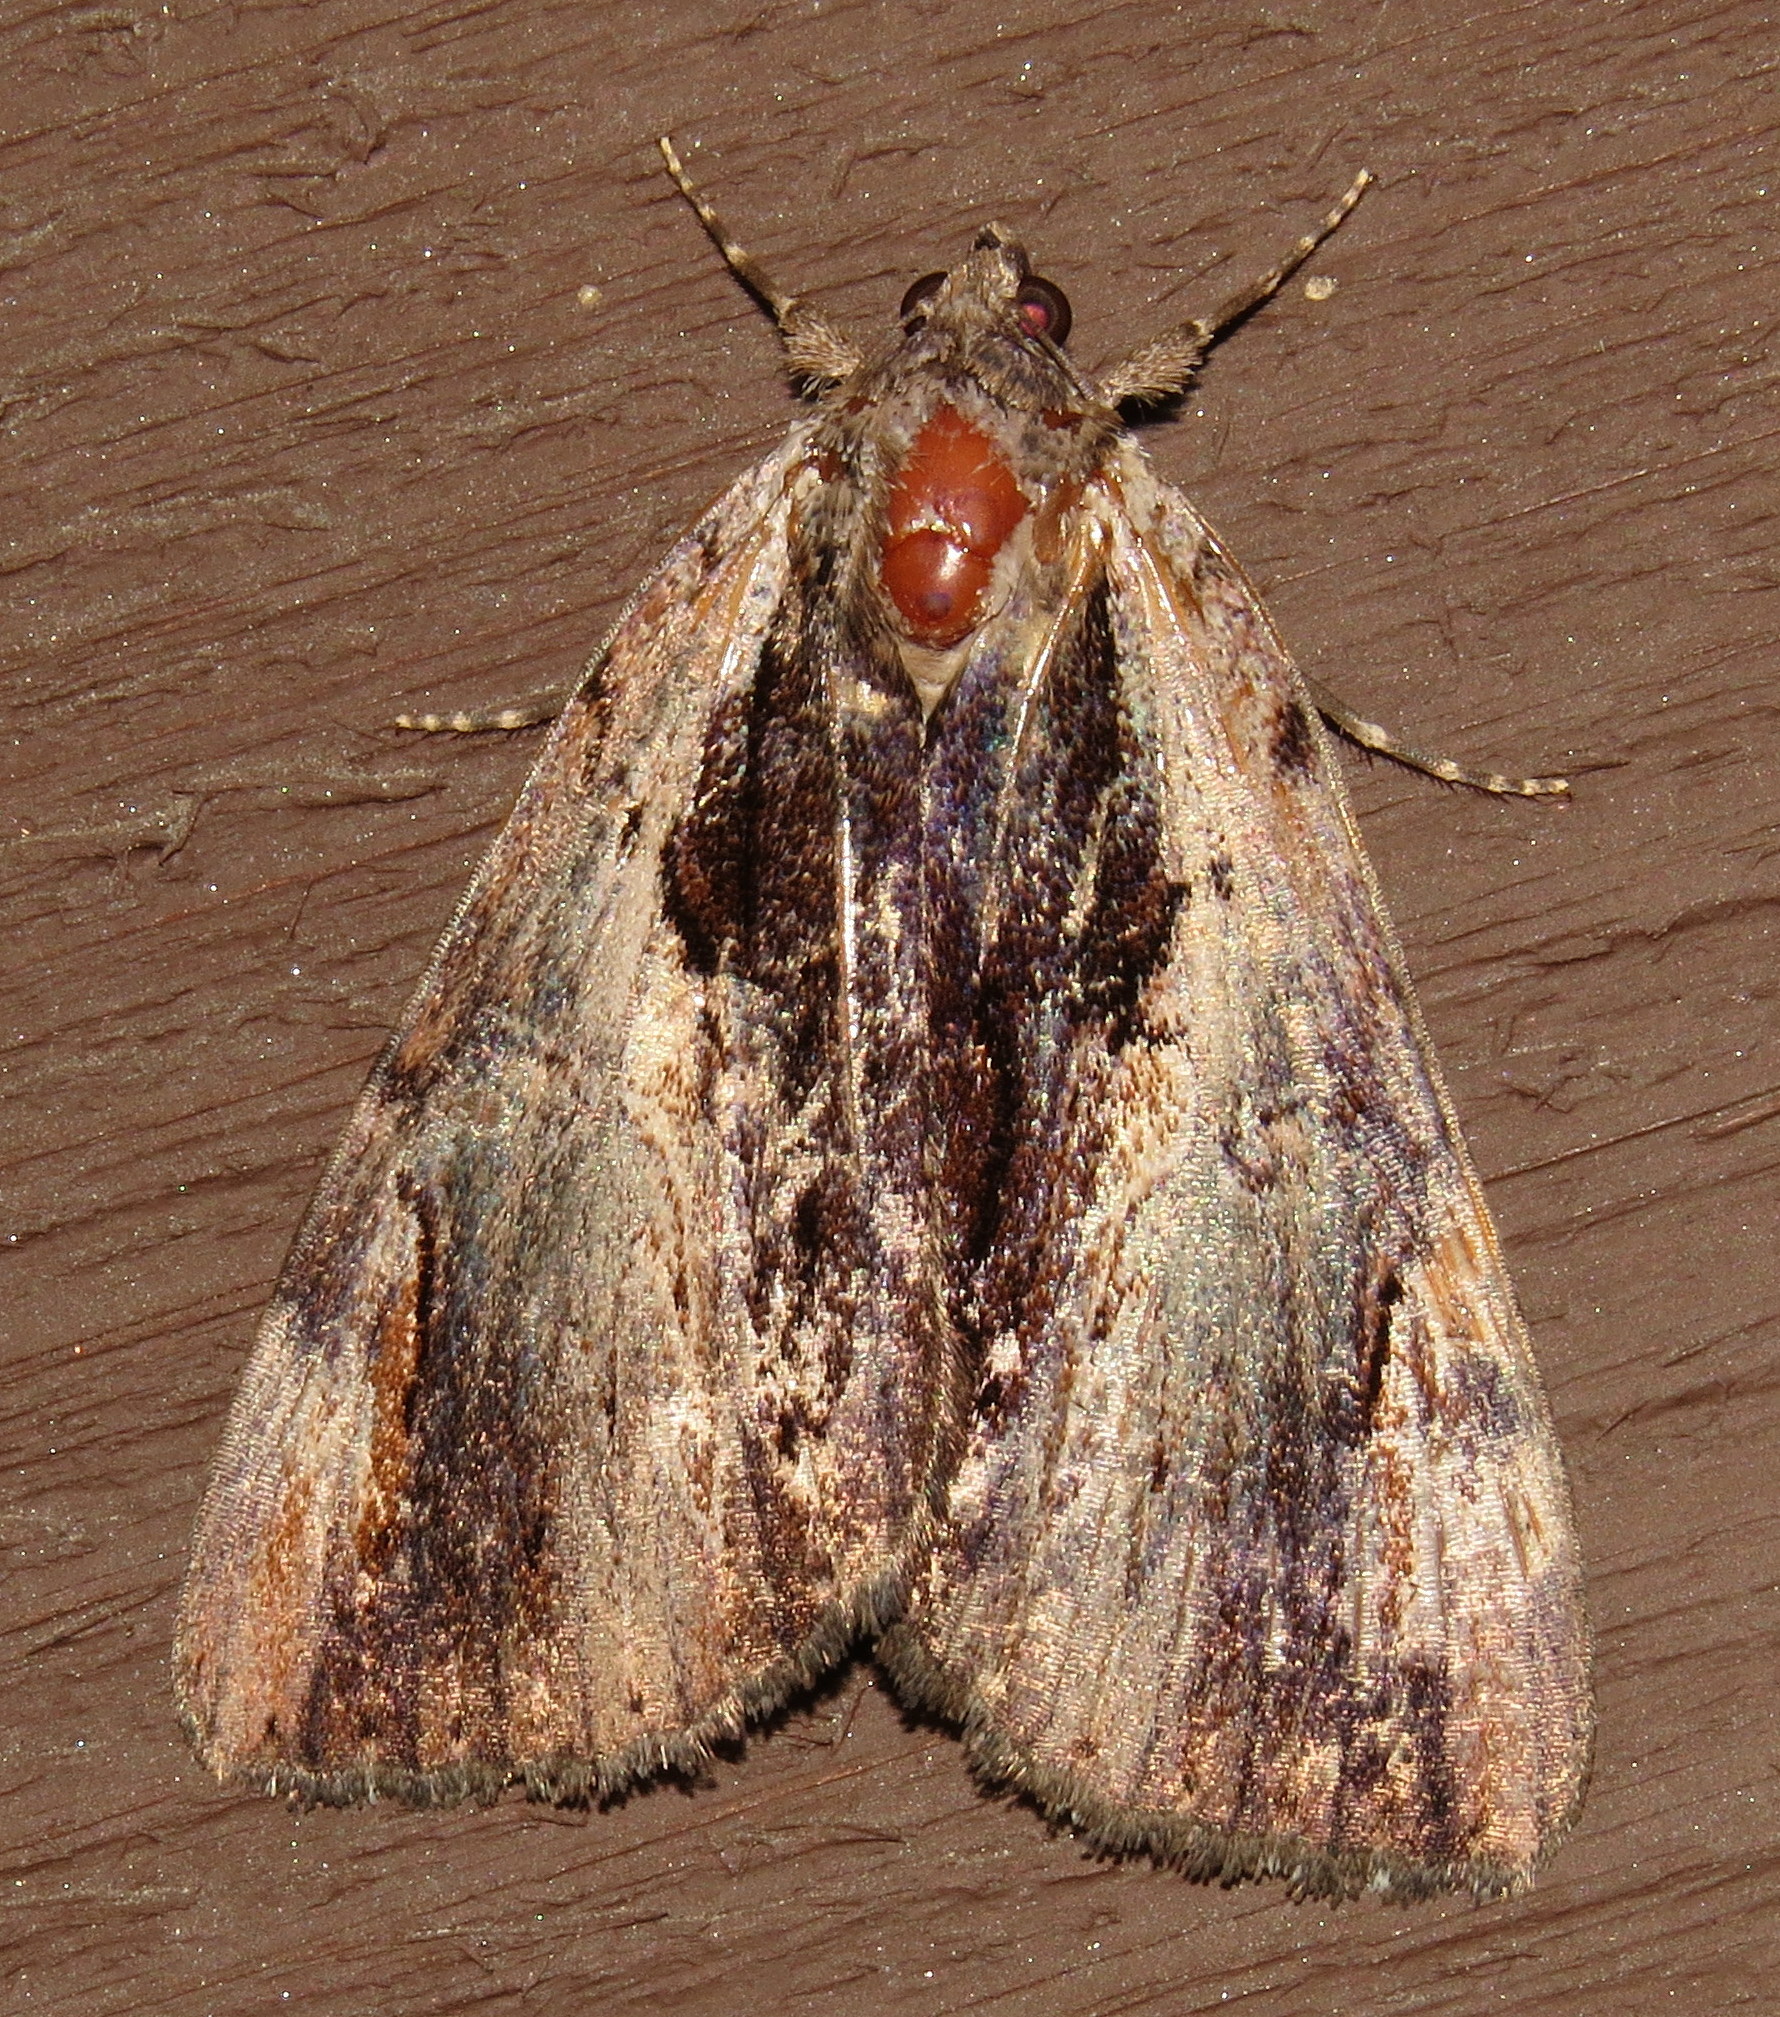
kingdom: Animalia
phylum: Arthropoda
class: Insecta
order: Lepidoptera
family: Erebidae
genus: Catocala
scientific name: Catocala ultronia
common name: Ultronia underwing
